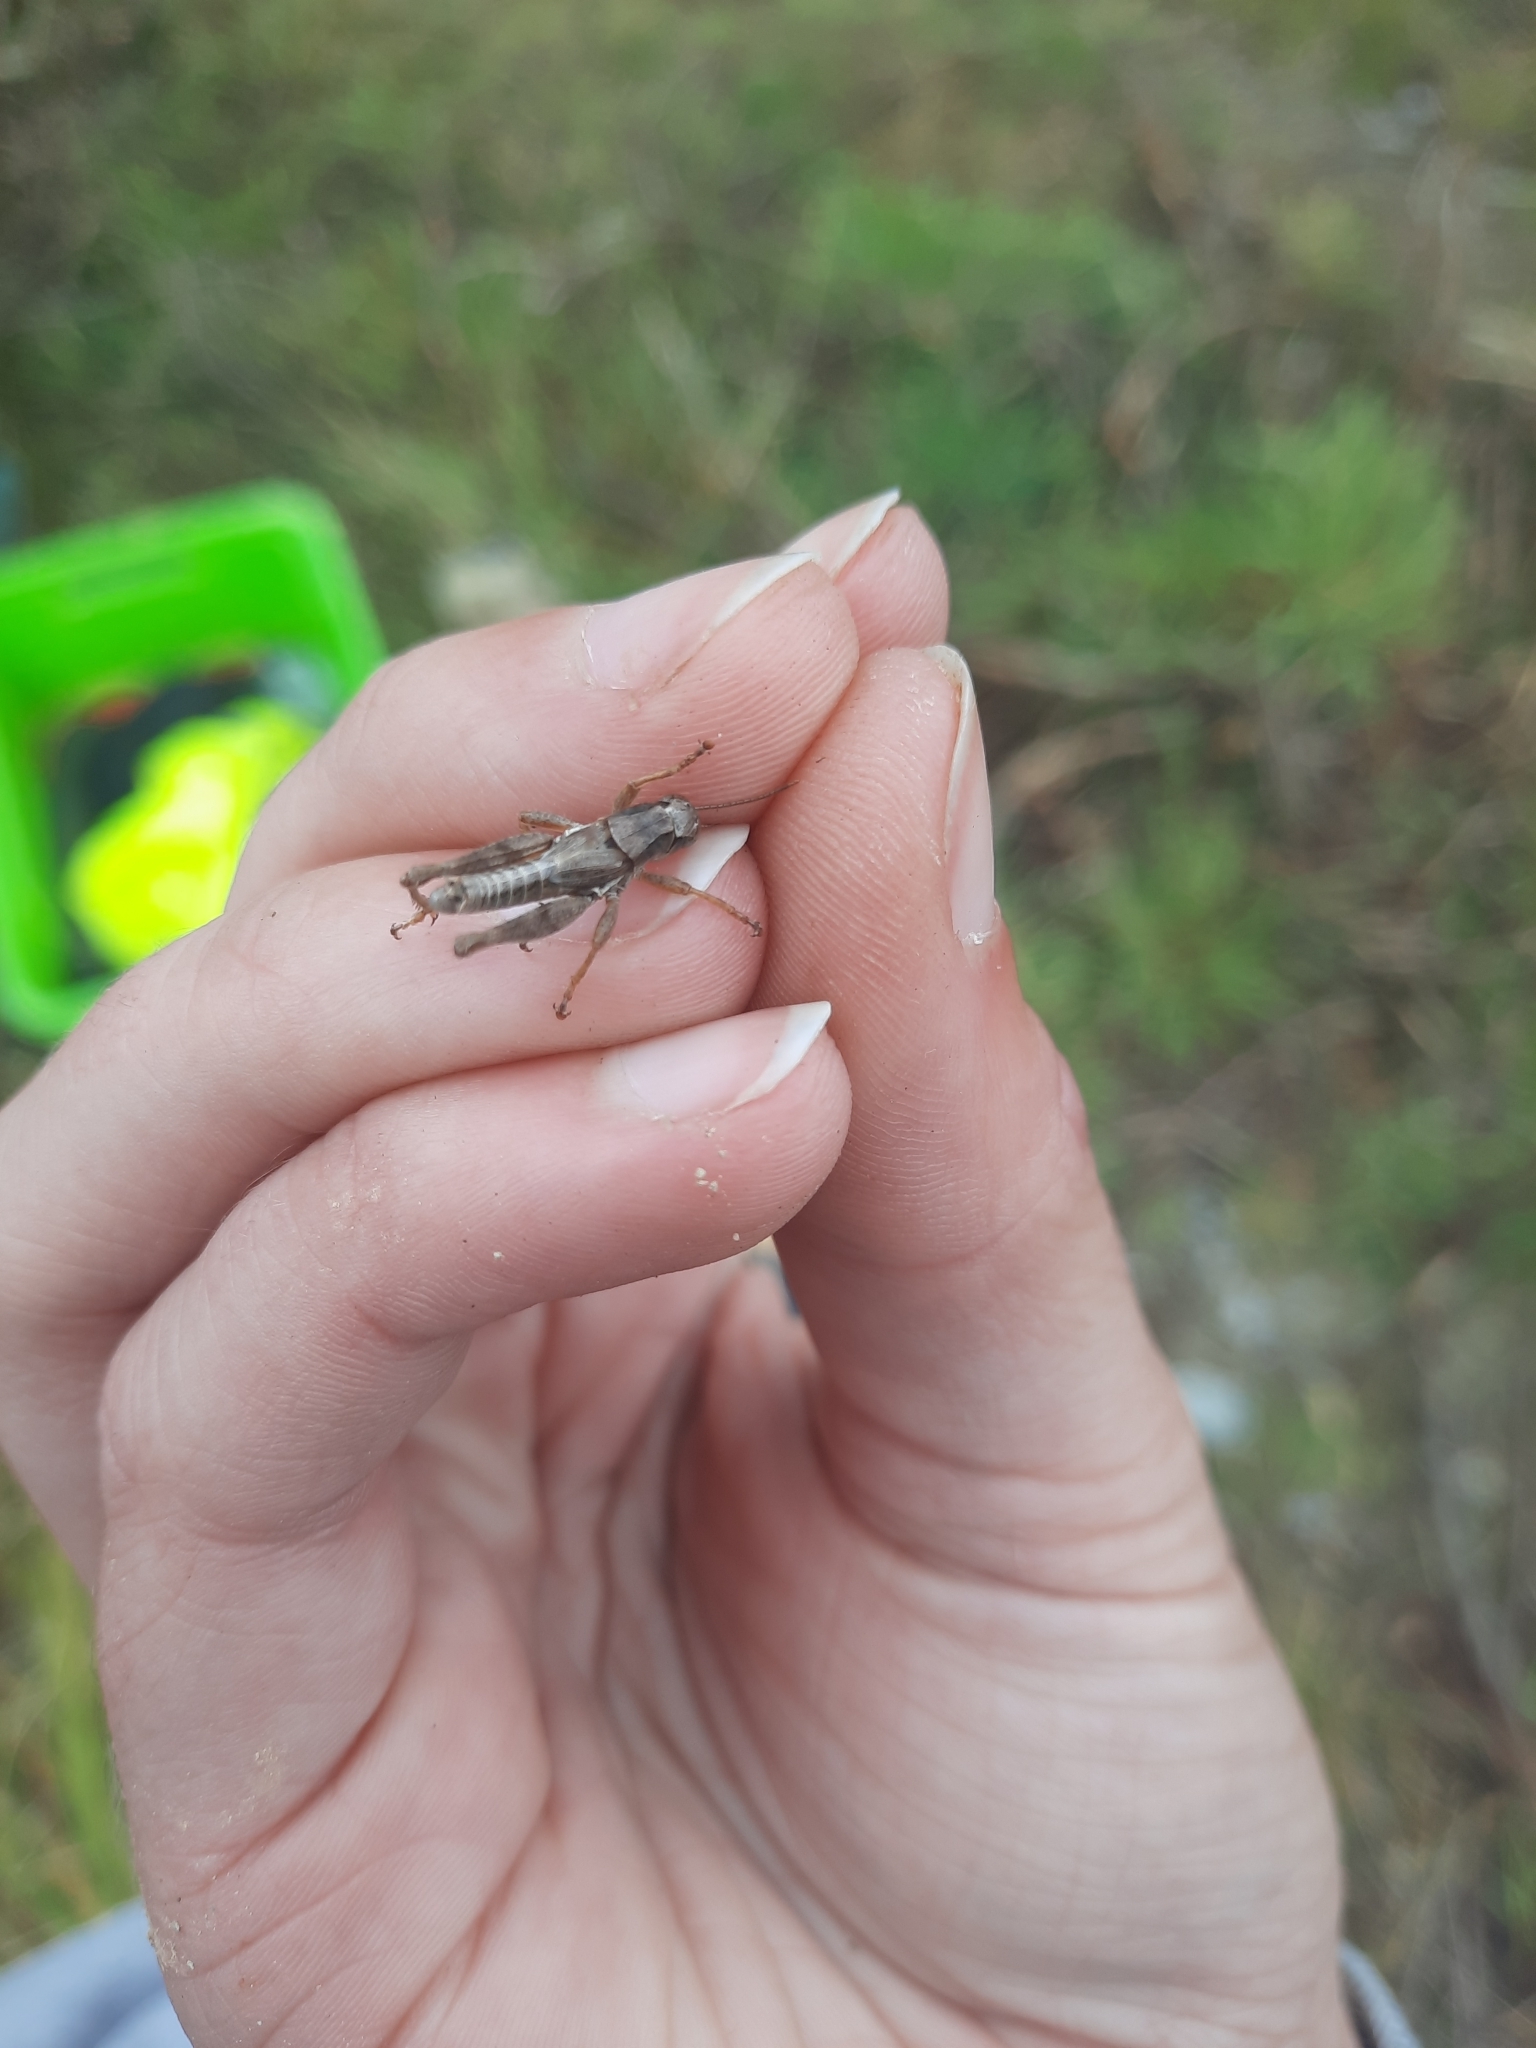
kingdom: Animalia
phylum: Arthropoda
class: Insecta
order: Orthoptera
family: Acrididae
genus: Phaulacridium
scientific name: Phaulacridium marginale
